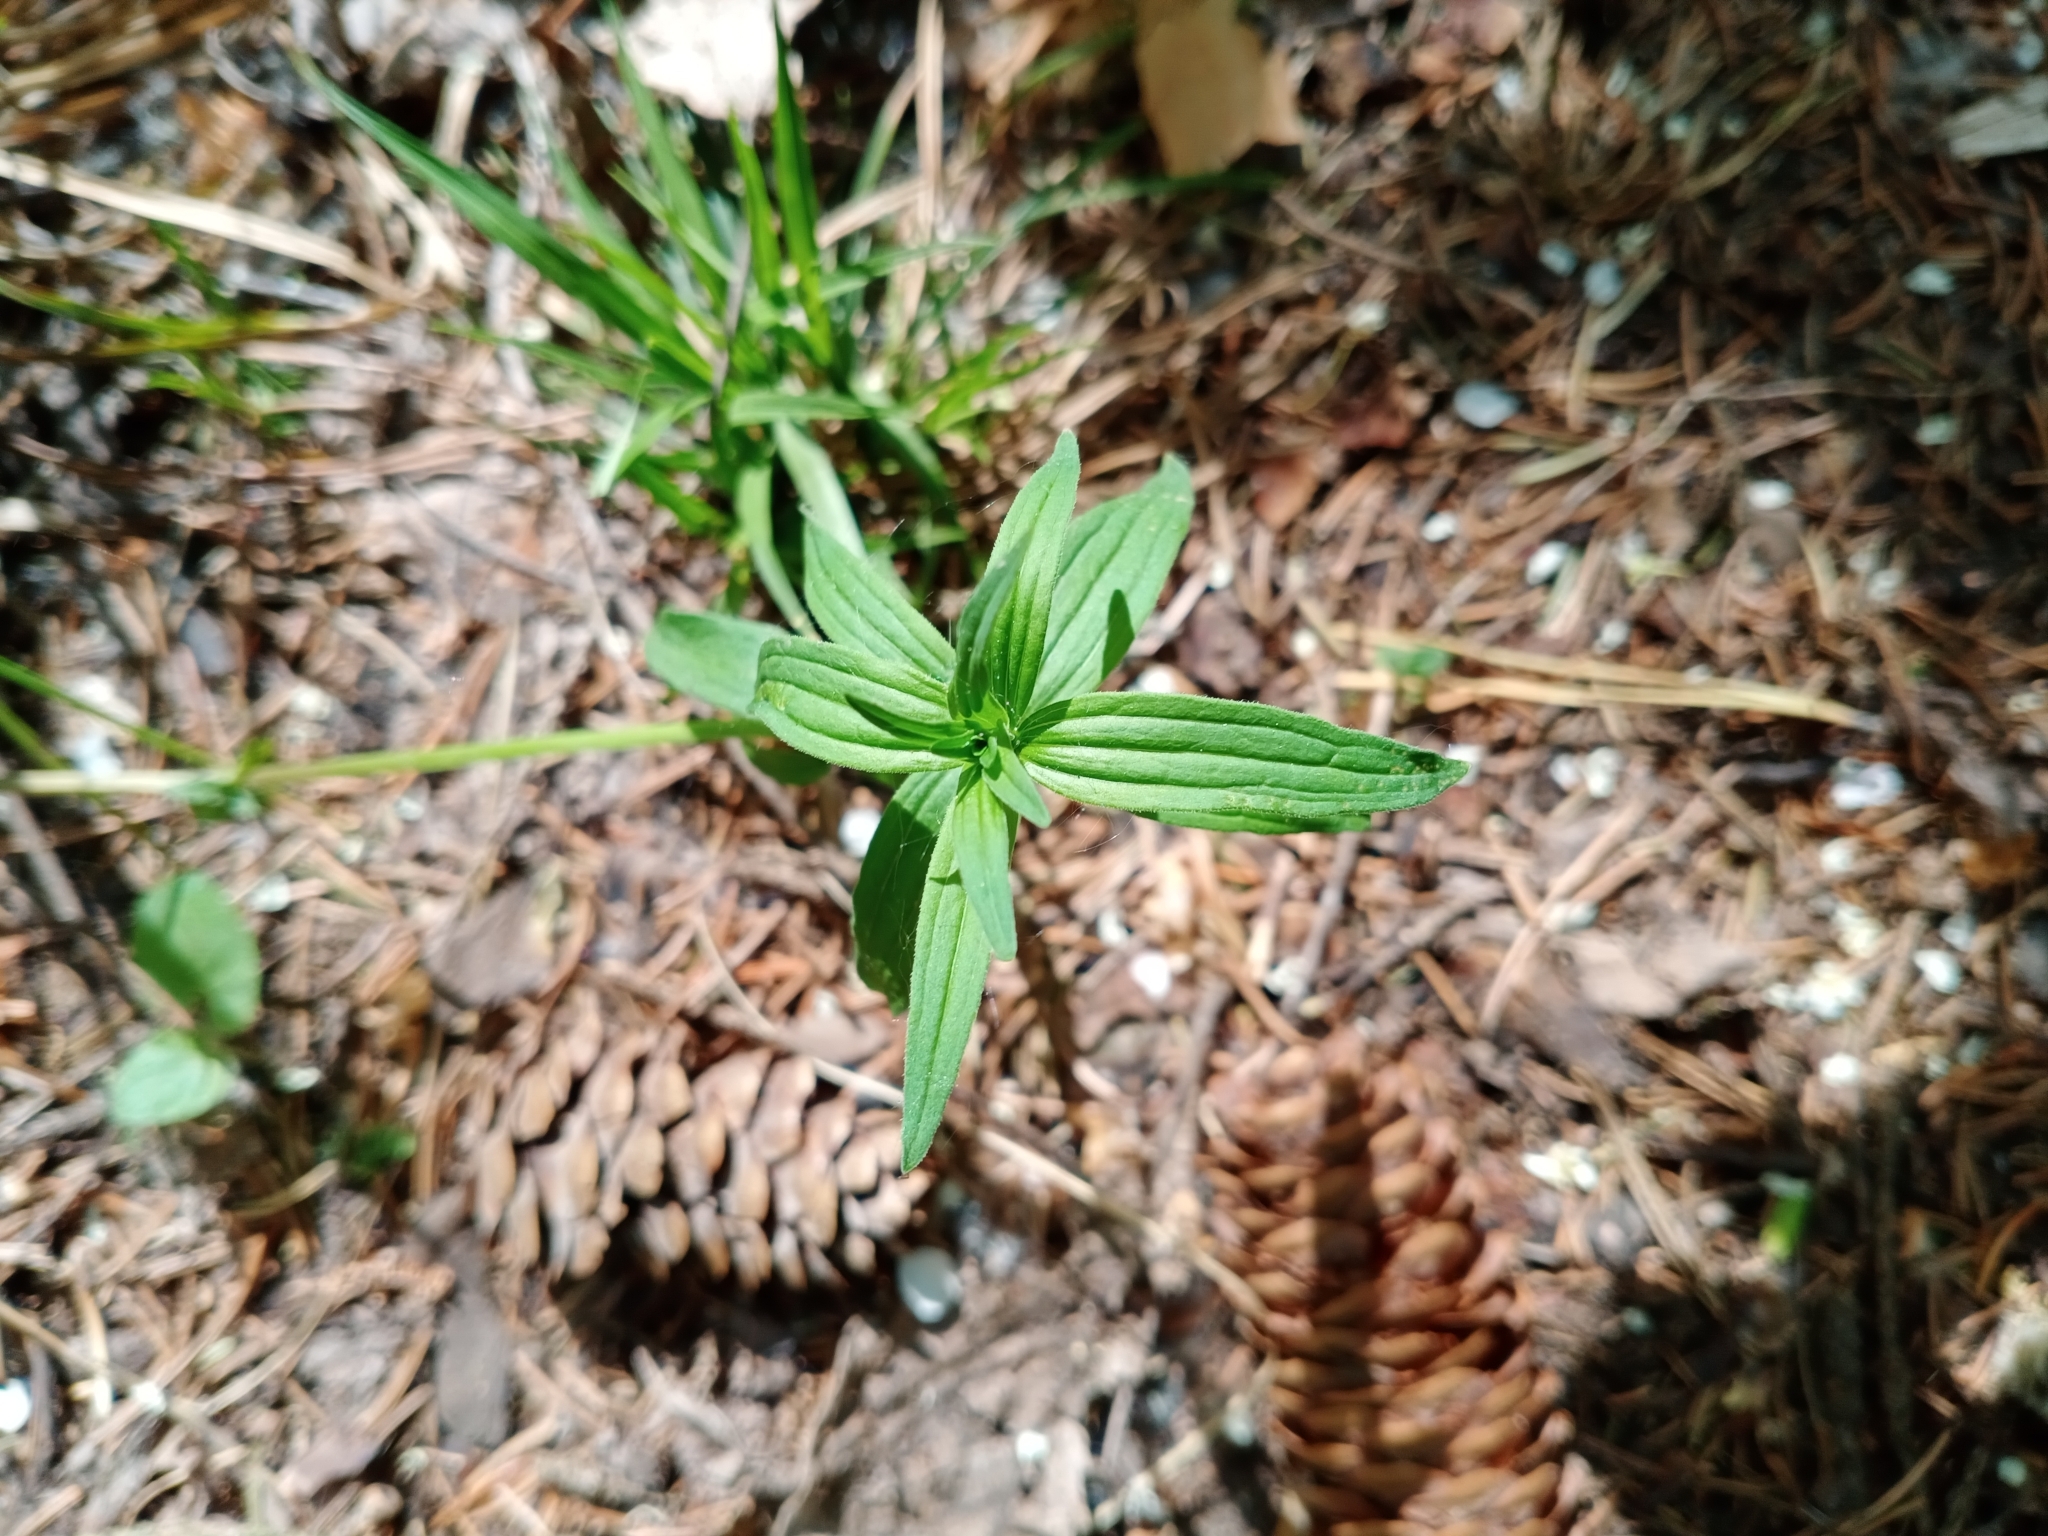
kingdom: Plantae
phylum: Tracheophyta
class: Magnoliopsida
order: Gentianales
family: Rubiaceae
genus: Galium
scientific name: Galium boreale
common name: Northern bedstraw
